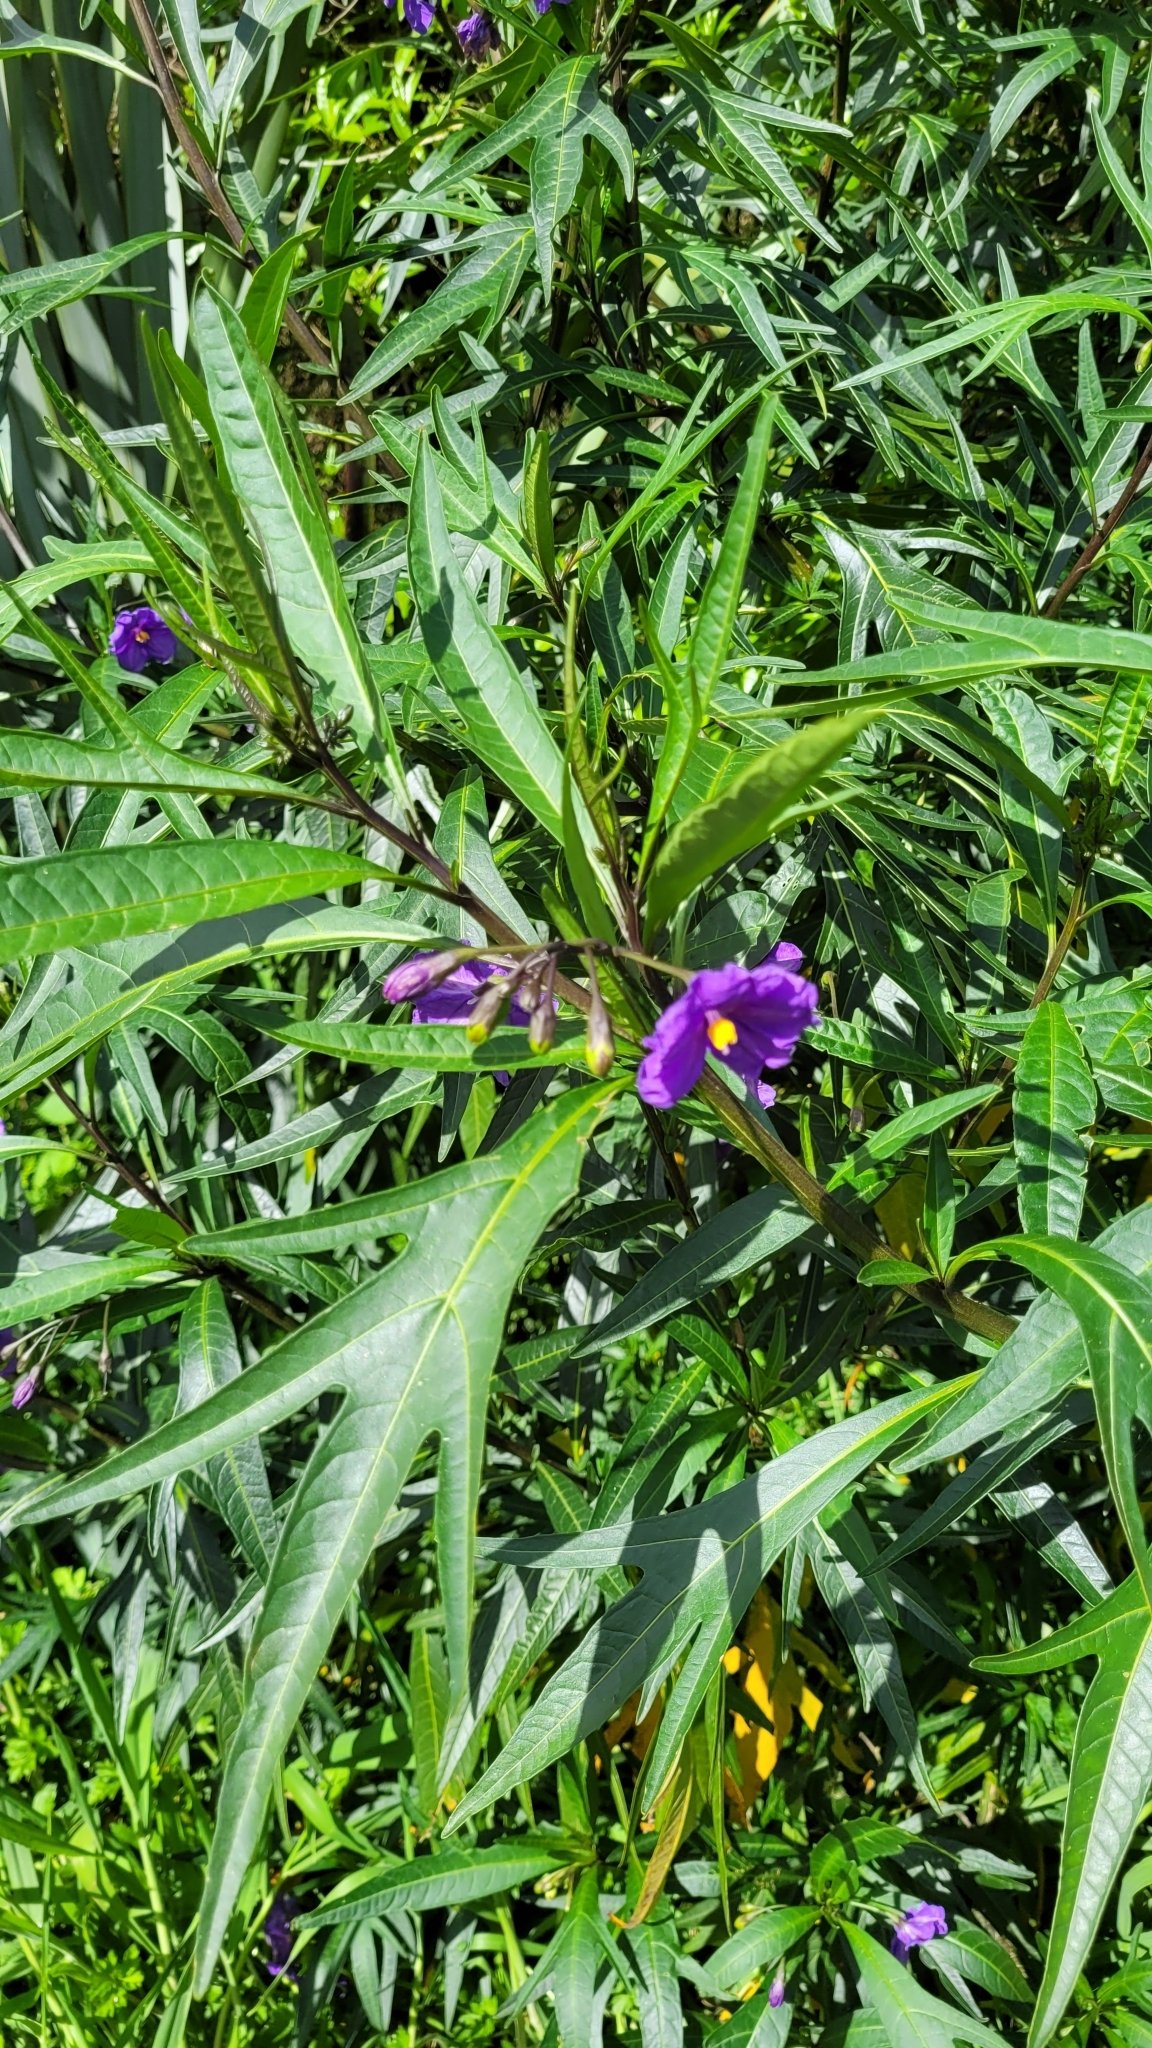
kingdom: Plantae
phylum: Tracheophyta
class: Magnoliopsida
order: Solanales
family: Solanaceae
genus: Solanum
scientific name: Solanum laciniatum
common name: Kangaroo-apple
